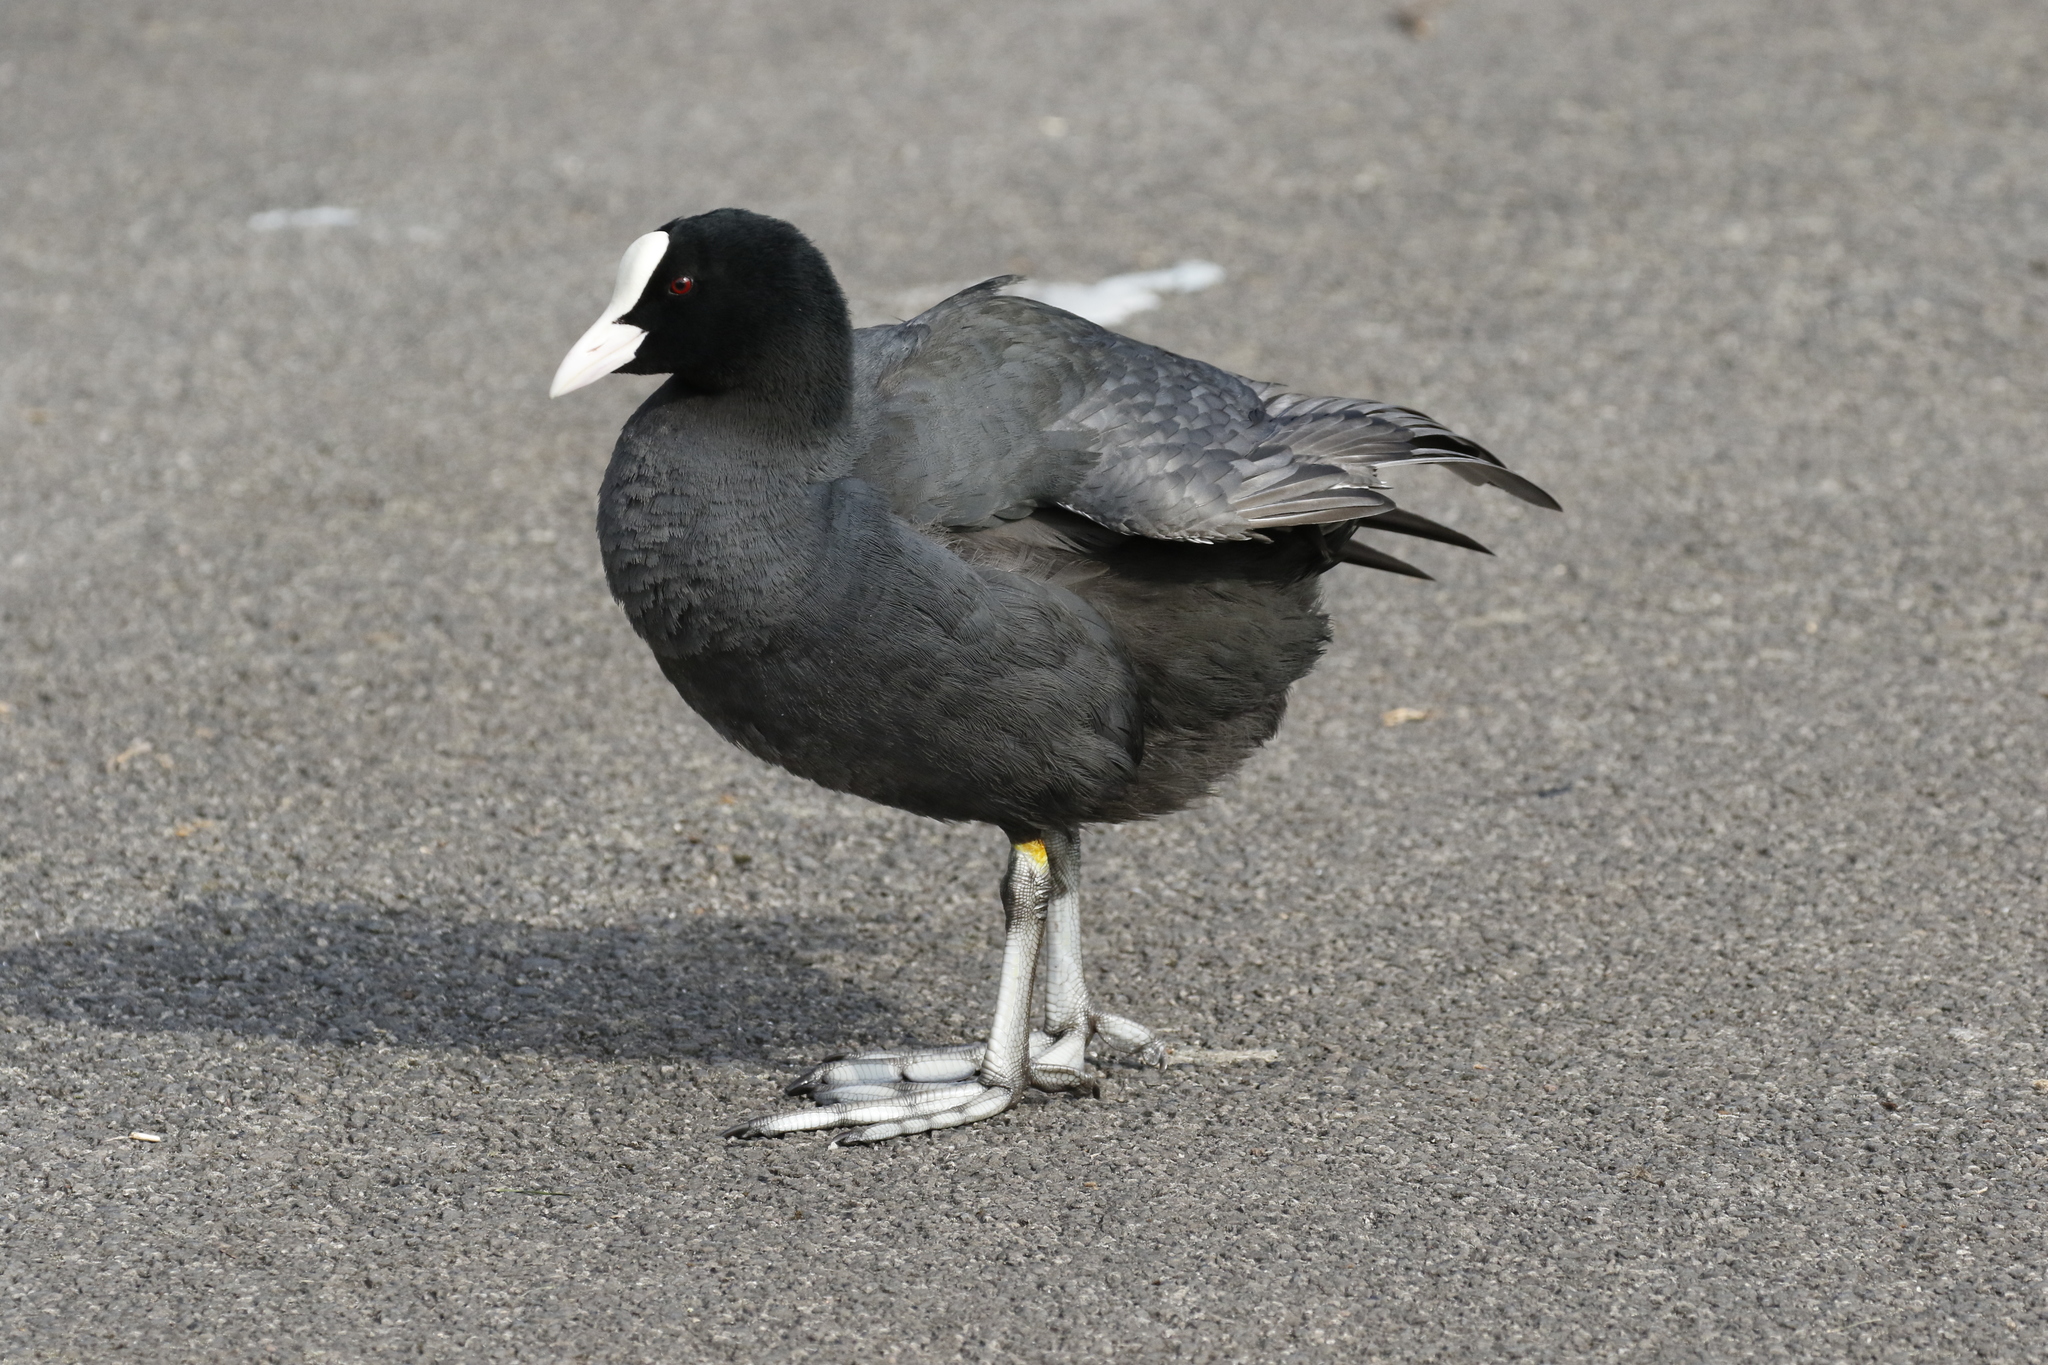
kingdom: Animalia
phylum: Chordata
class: Aves
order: Gruiformes
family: Rallidae
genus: Fulica
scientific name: Fulica atra
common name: Eurasian coot
